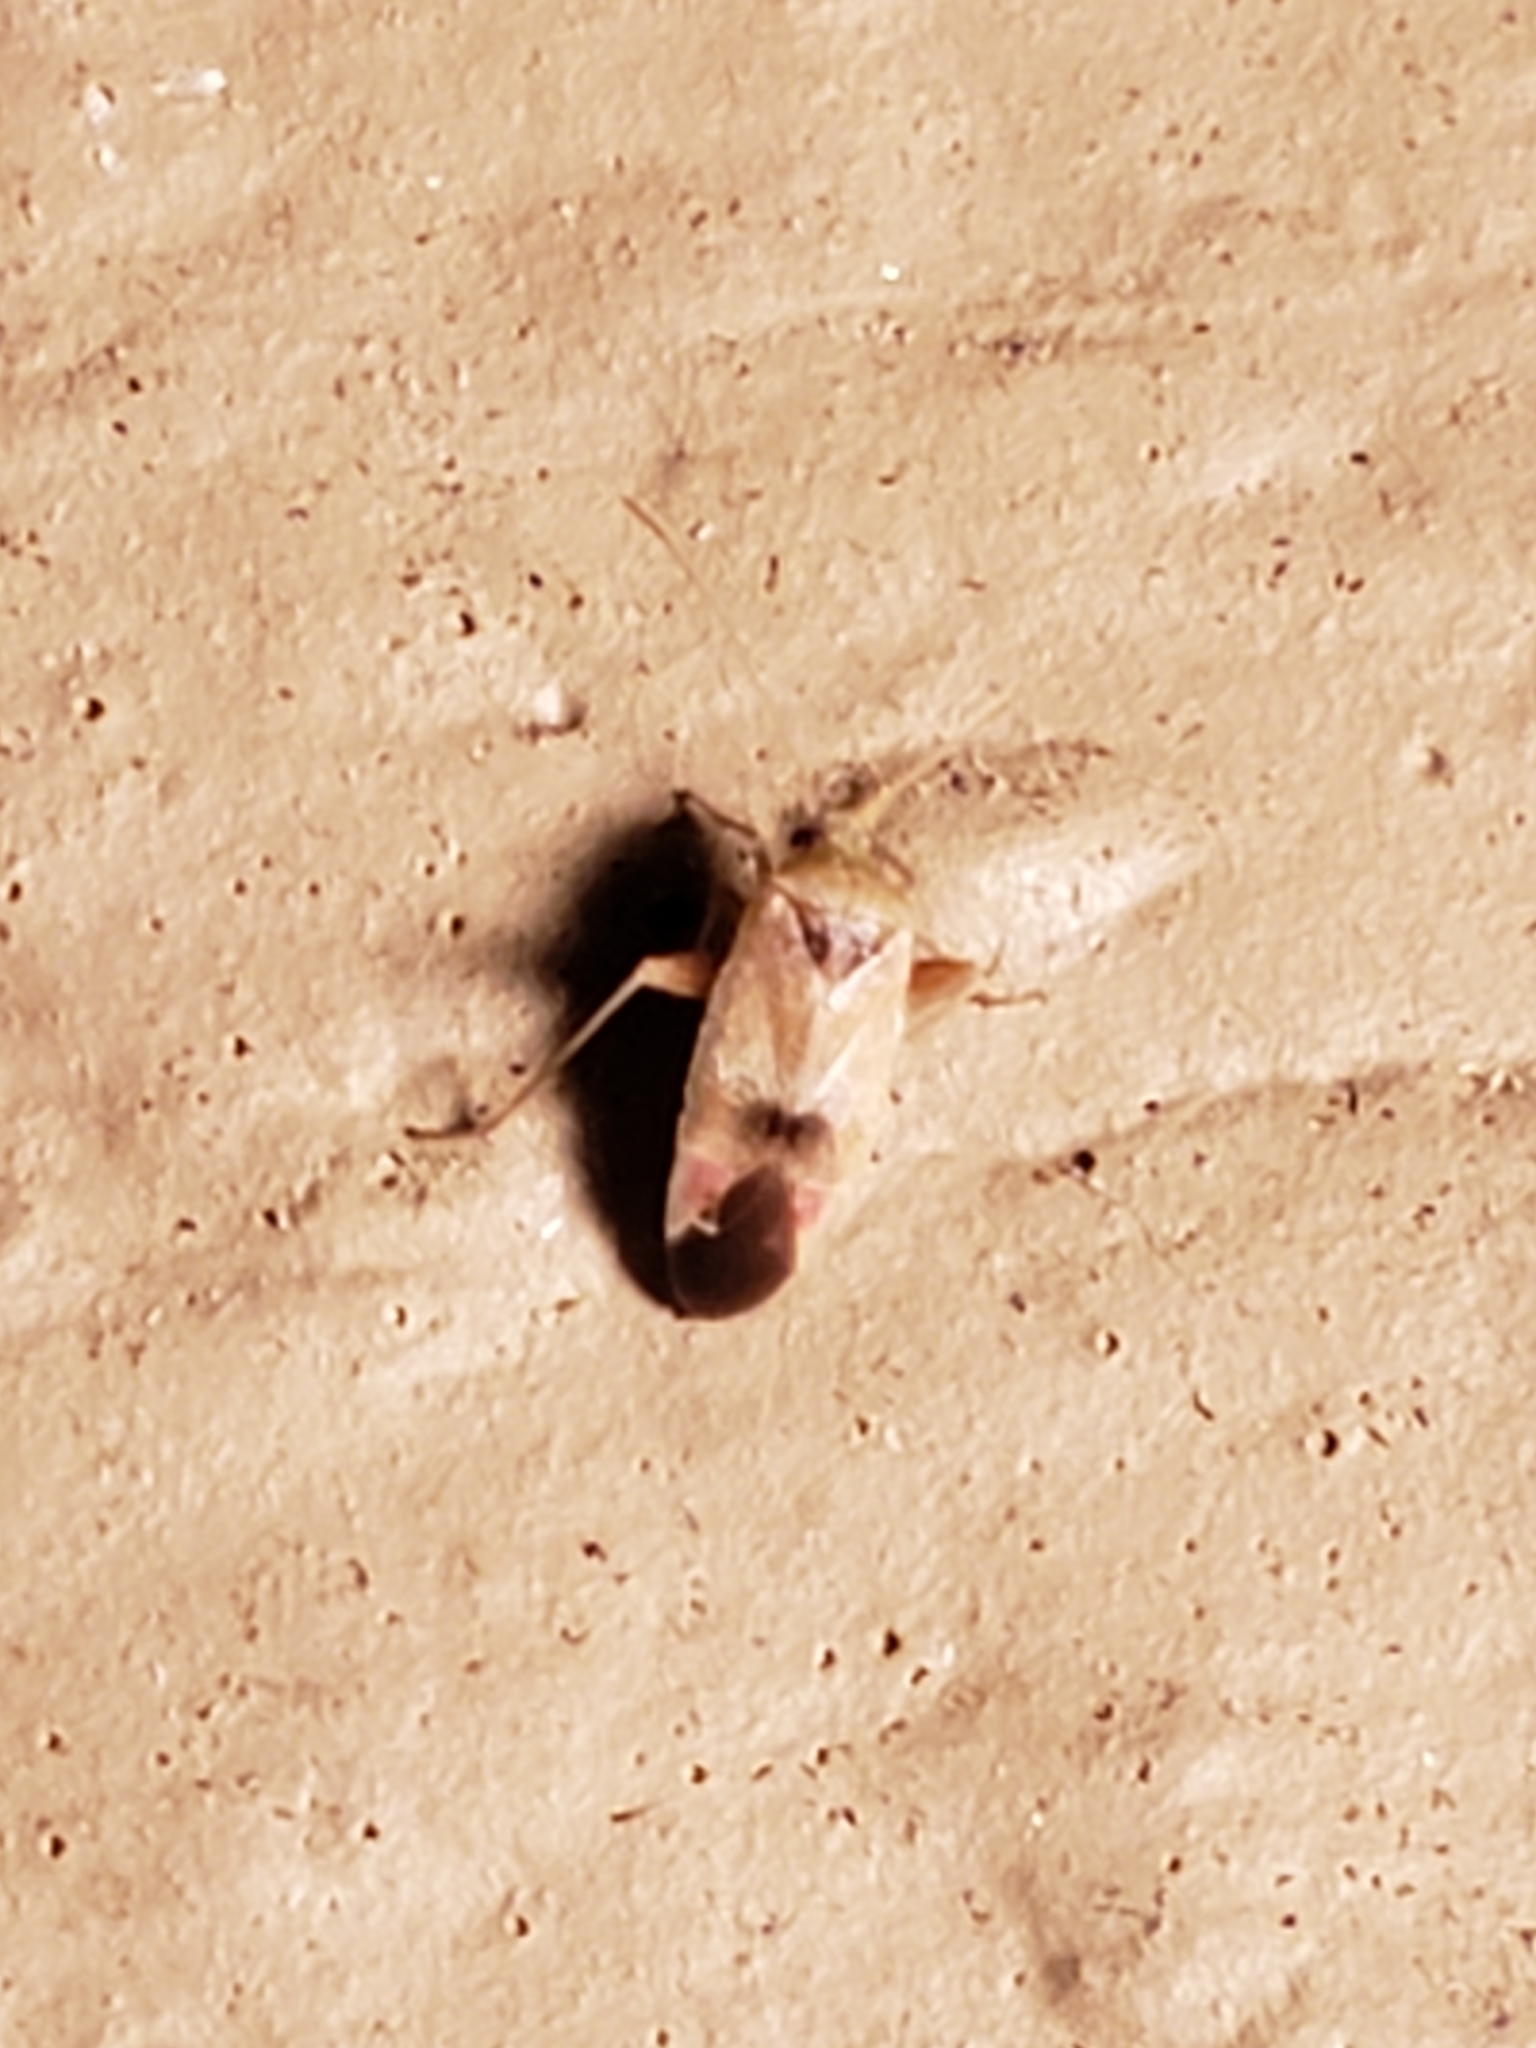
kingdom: Animalia
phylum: Arthropoda
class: Insecta
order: Hemiptera
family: Miridae
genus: Parthenicus
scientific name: Parthenicus juniperi
